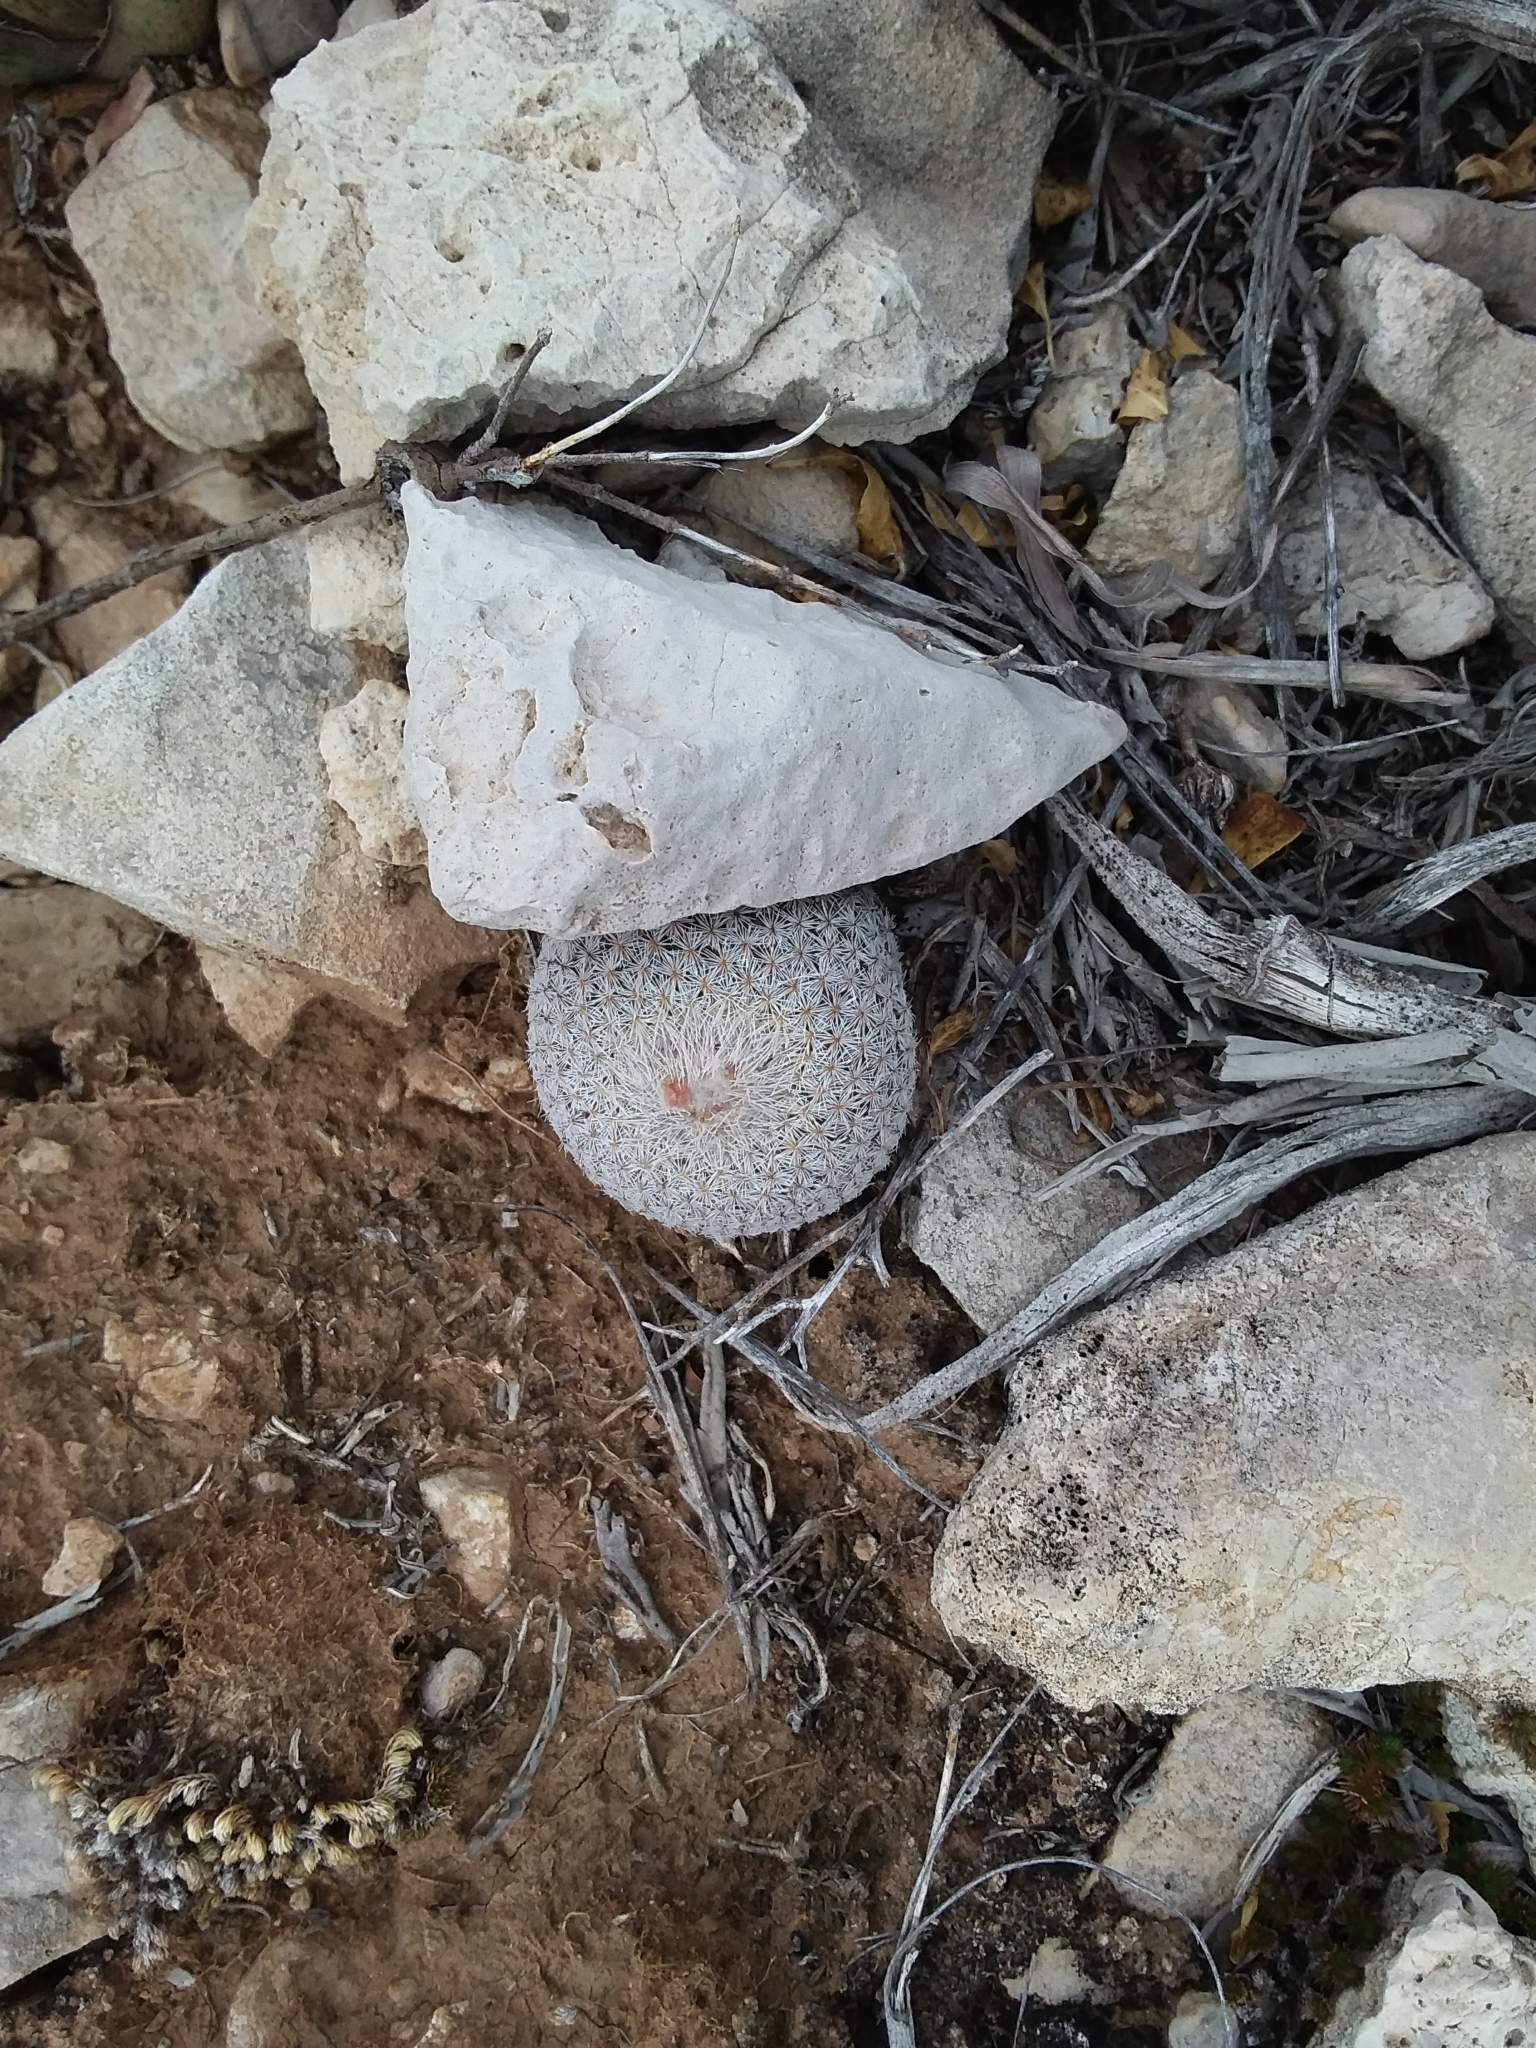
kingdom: Plantae
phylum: Tracheophyta
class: Magnoliopsida
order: Caryophyllales
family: Cactaceae
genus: Epithelantha
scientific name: Epithelantha micromeris
